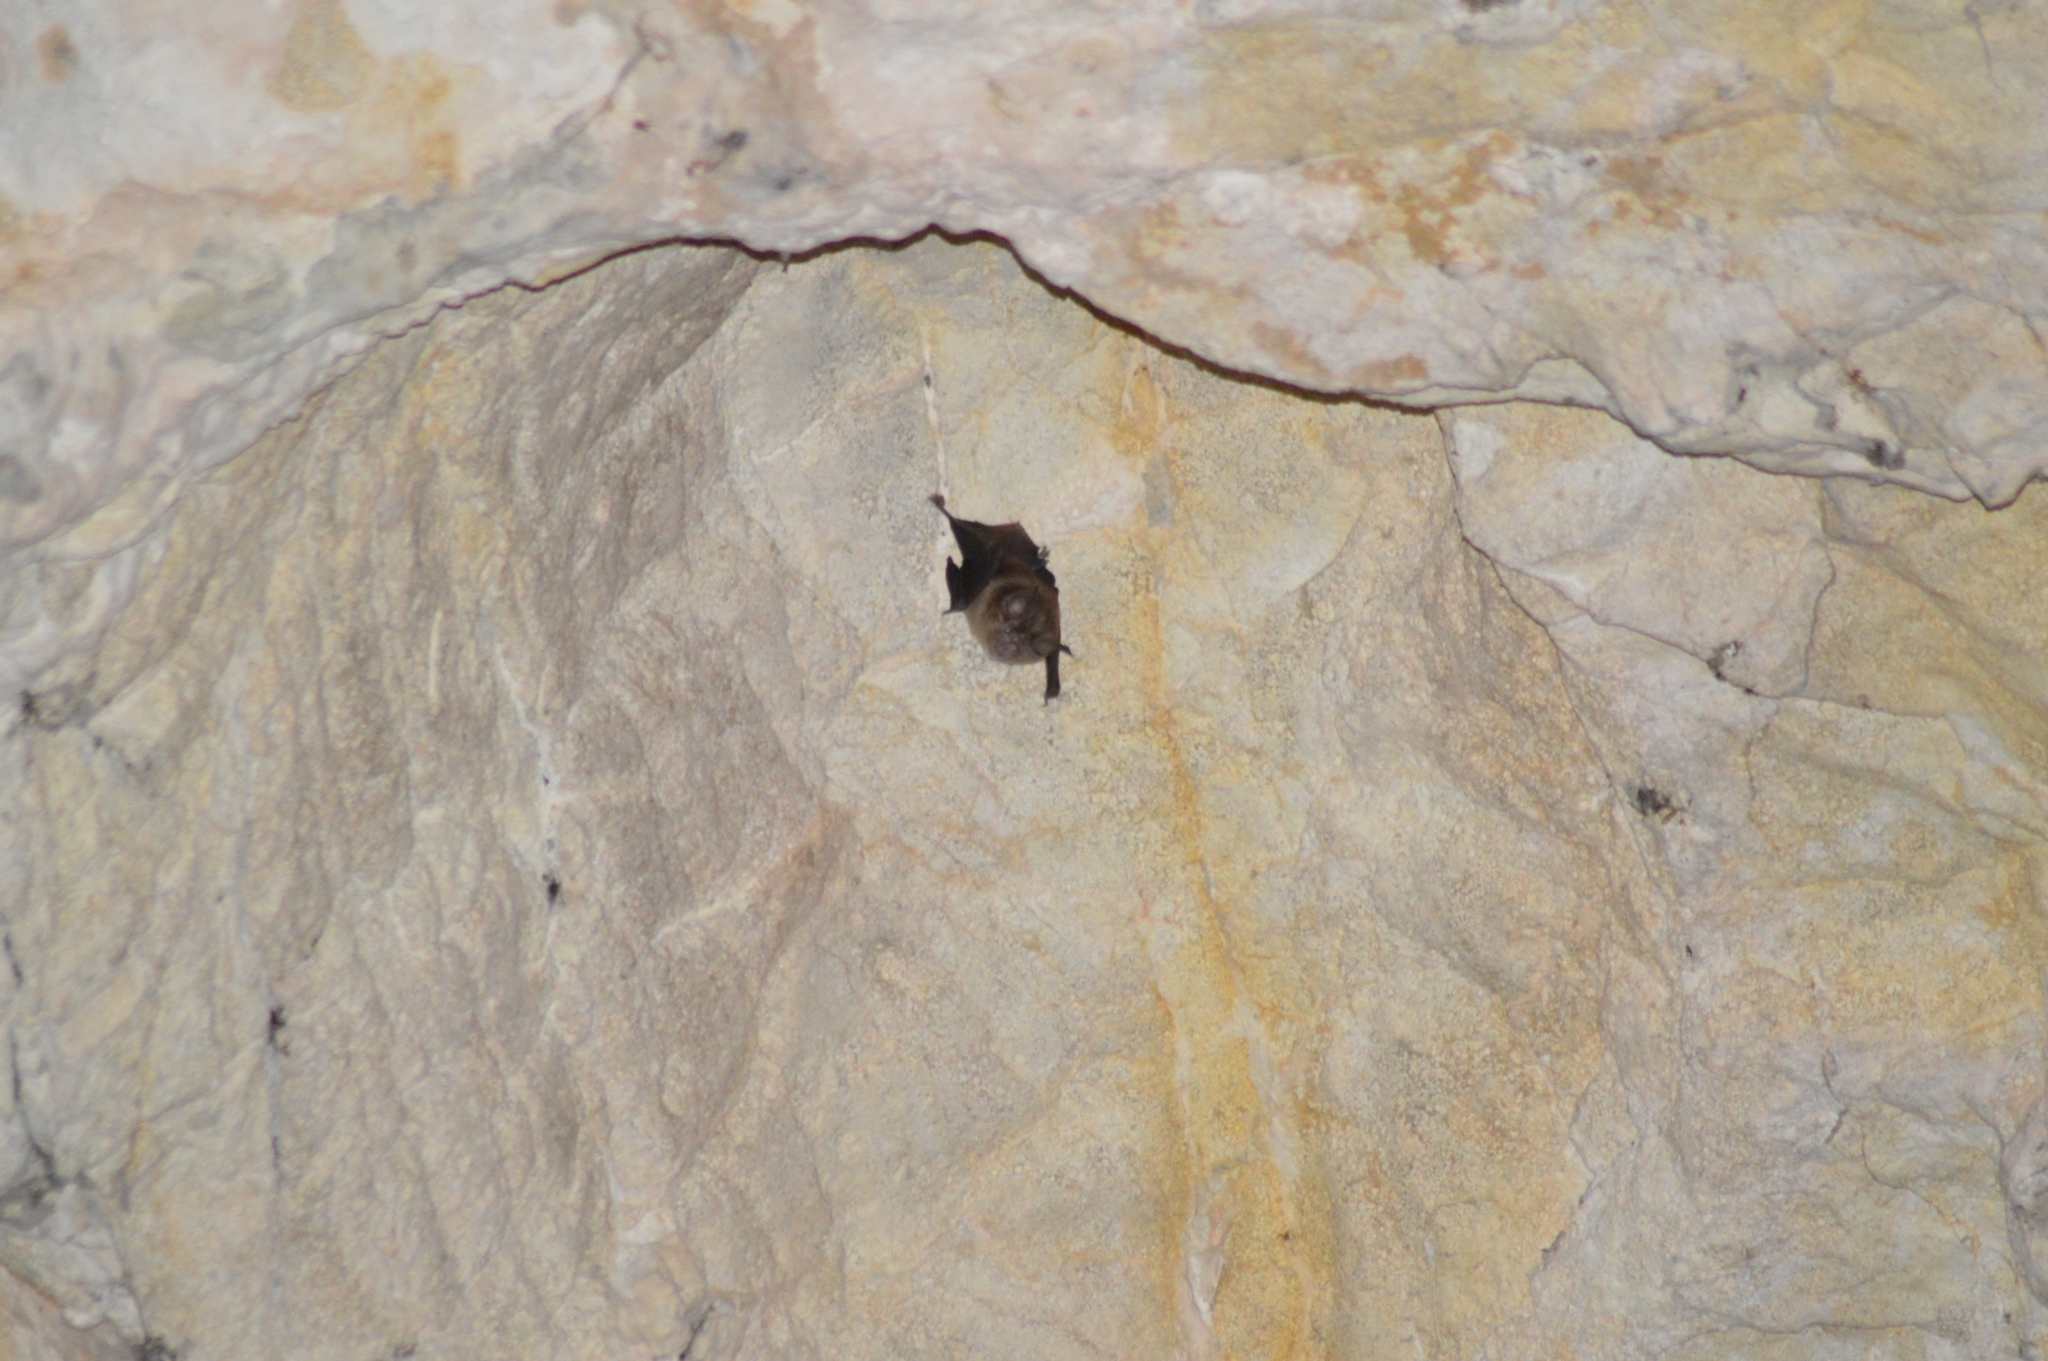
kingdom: Animalia
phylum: Chordata
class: Mammalia
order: Chiroptera
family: Rhinolophidae
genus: Rhinolophus
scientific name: Rhinolophus
